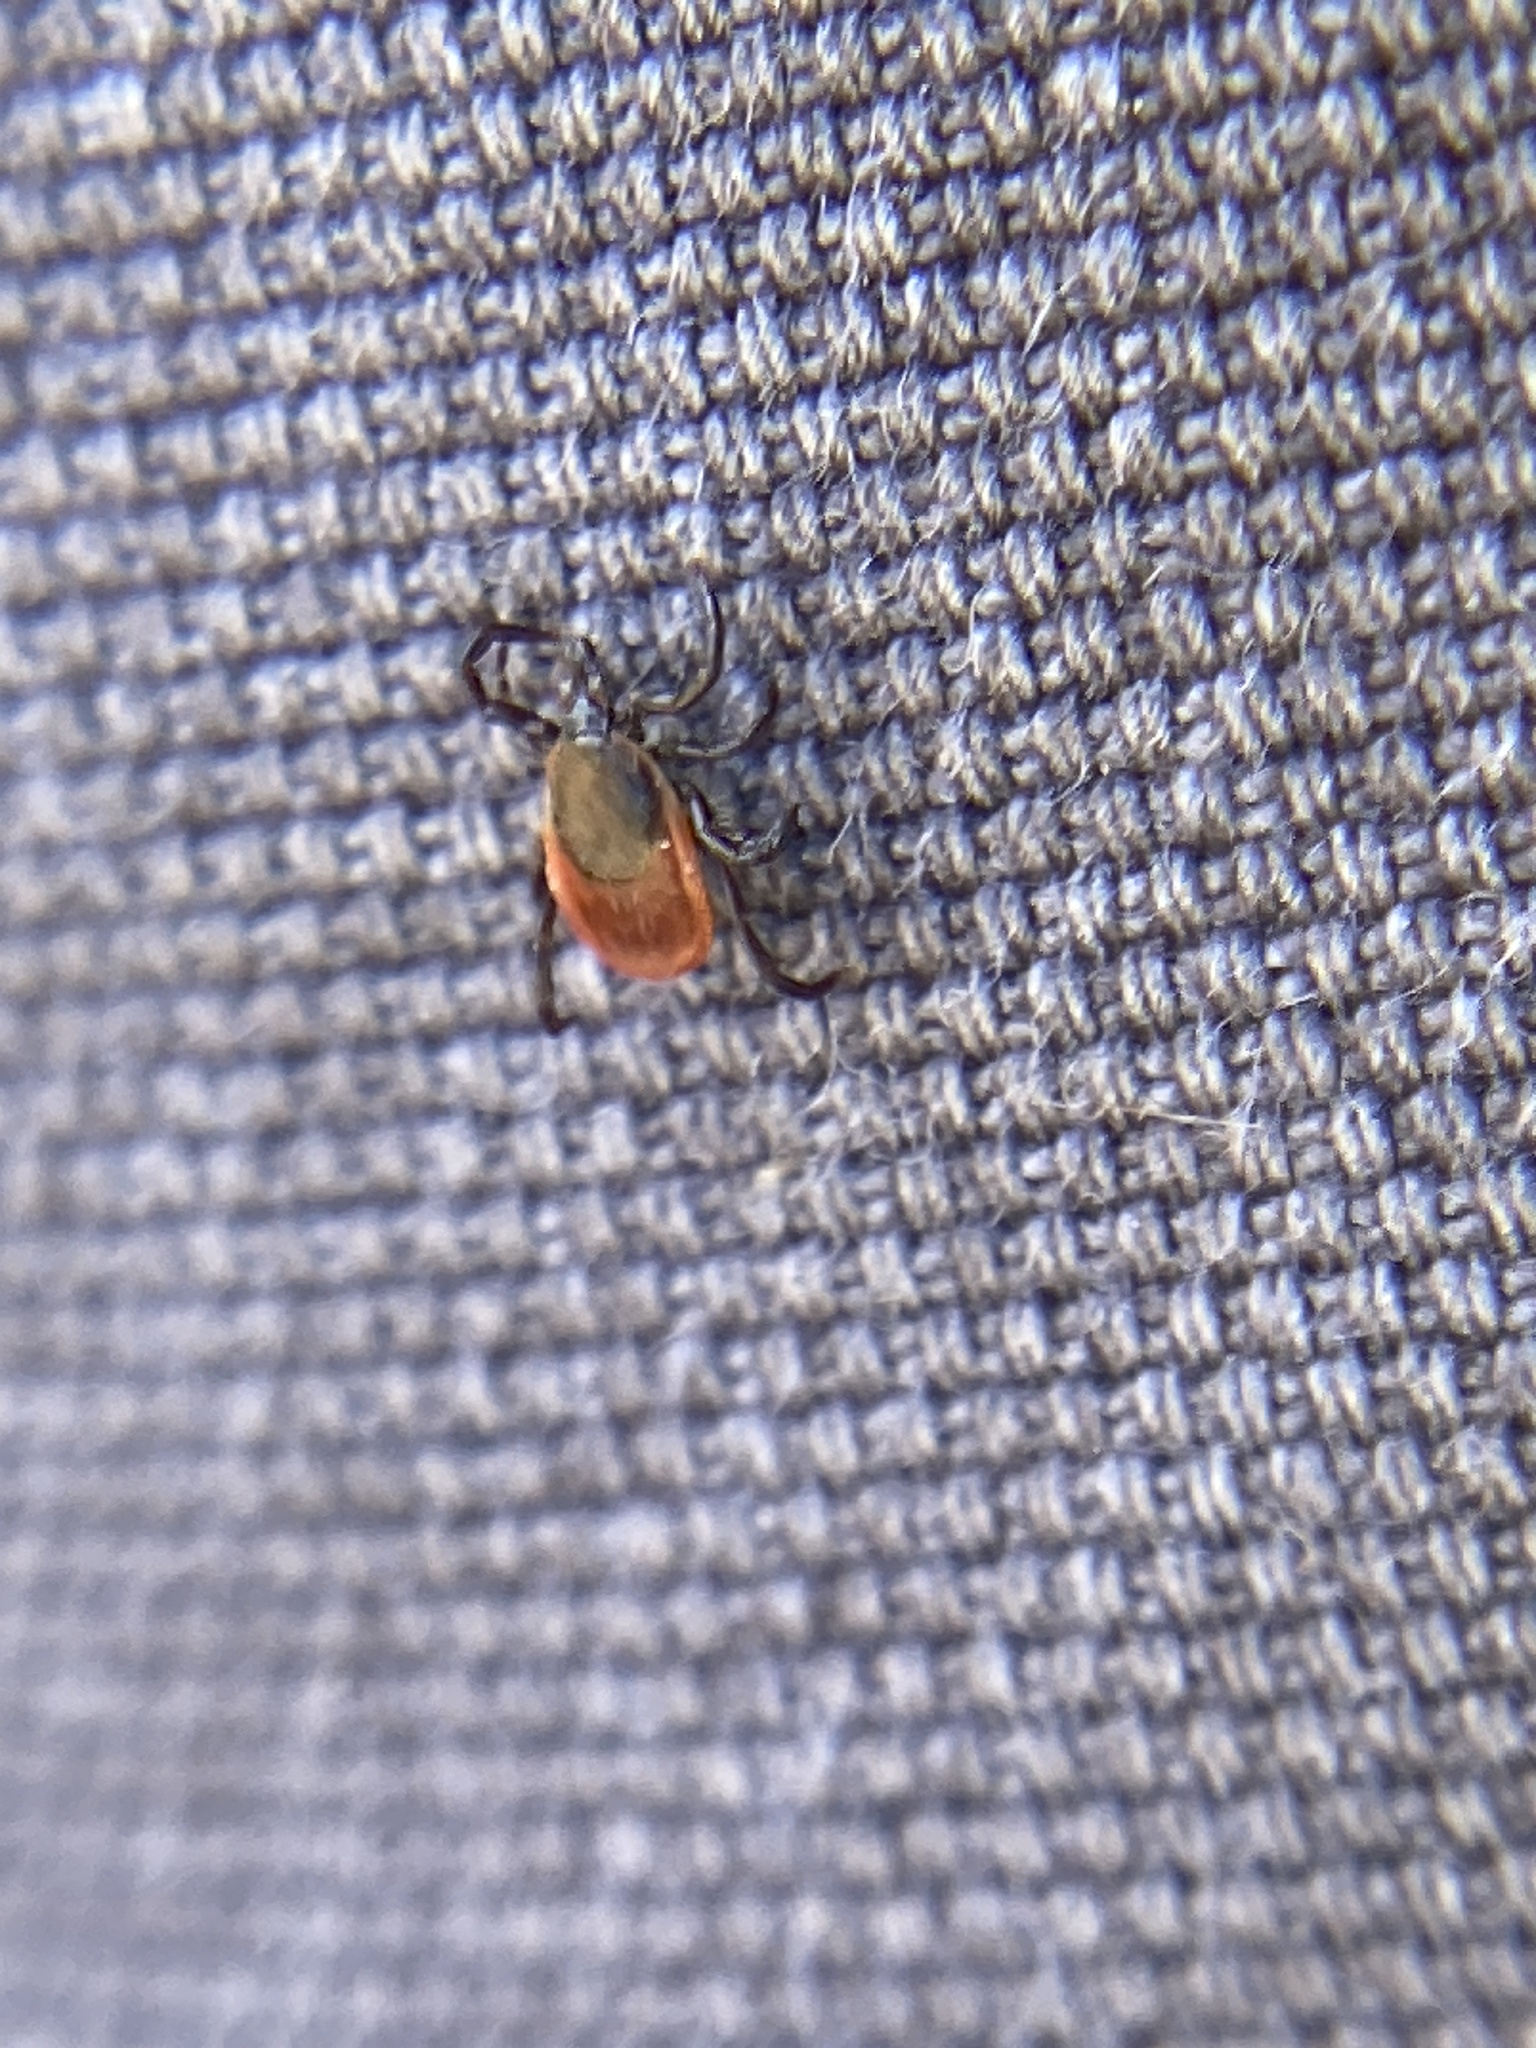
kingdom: Animalia
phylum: Arthropoda
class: Arachnida
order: Ixodida
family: Ixodidae
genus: Ixodes
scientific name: Ixodes scapularis
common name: Black legged tick
